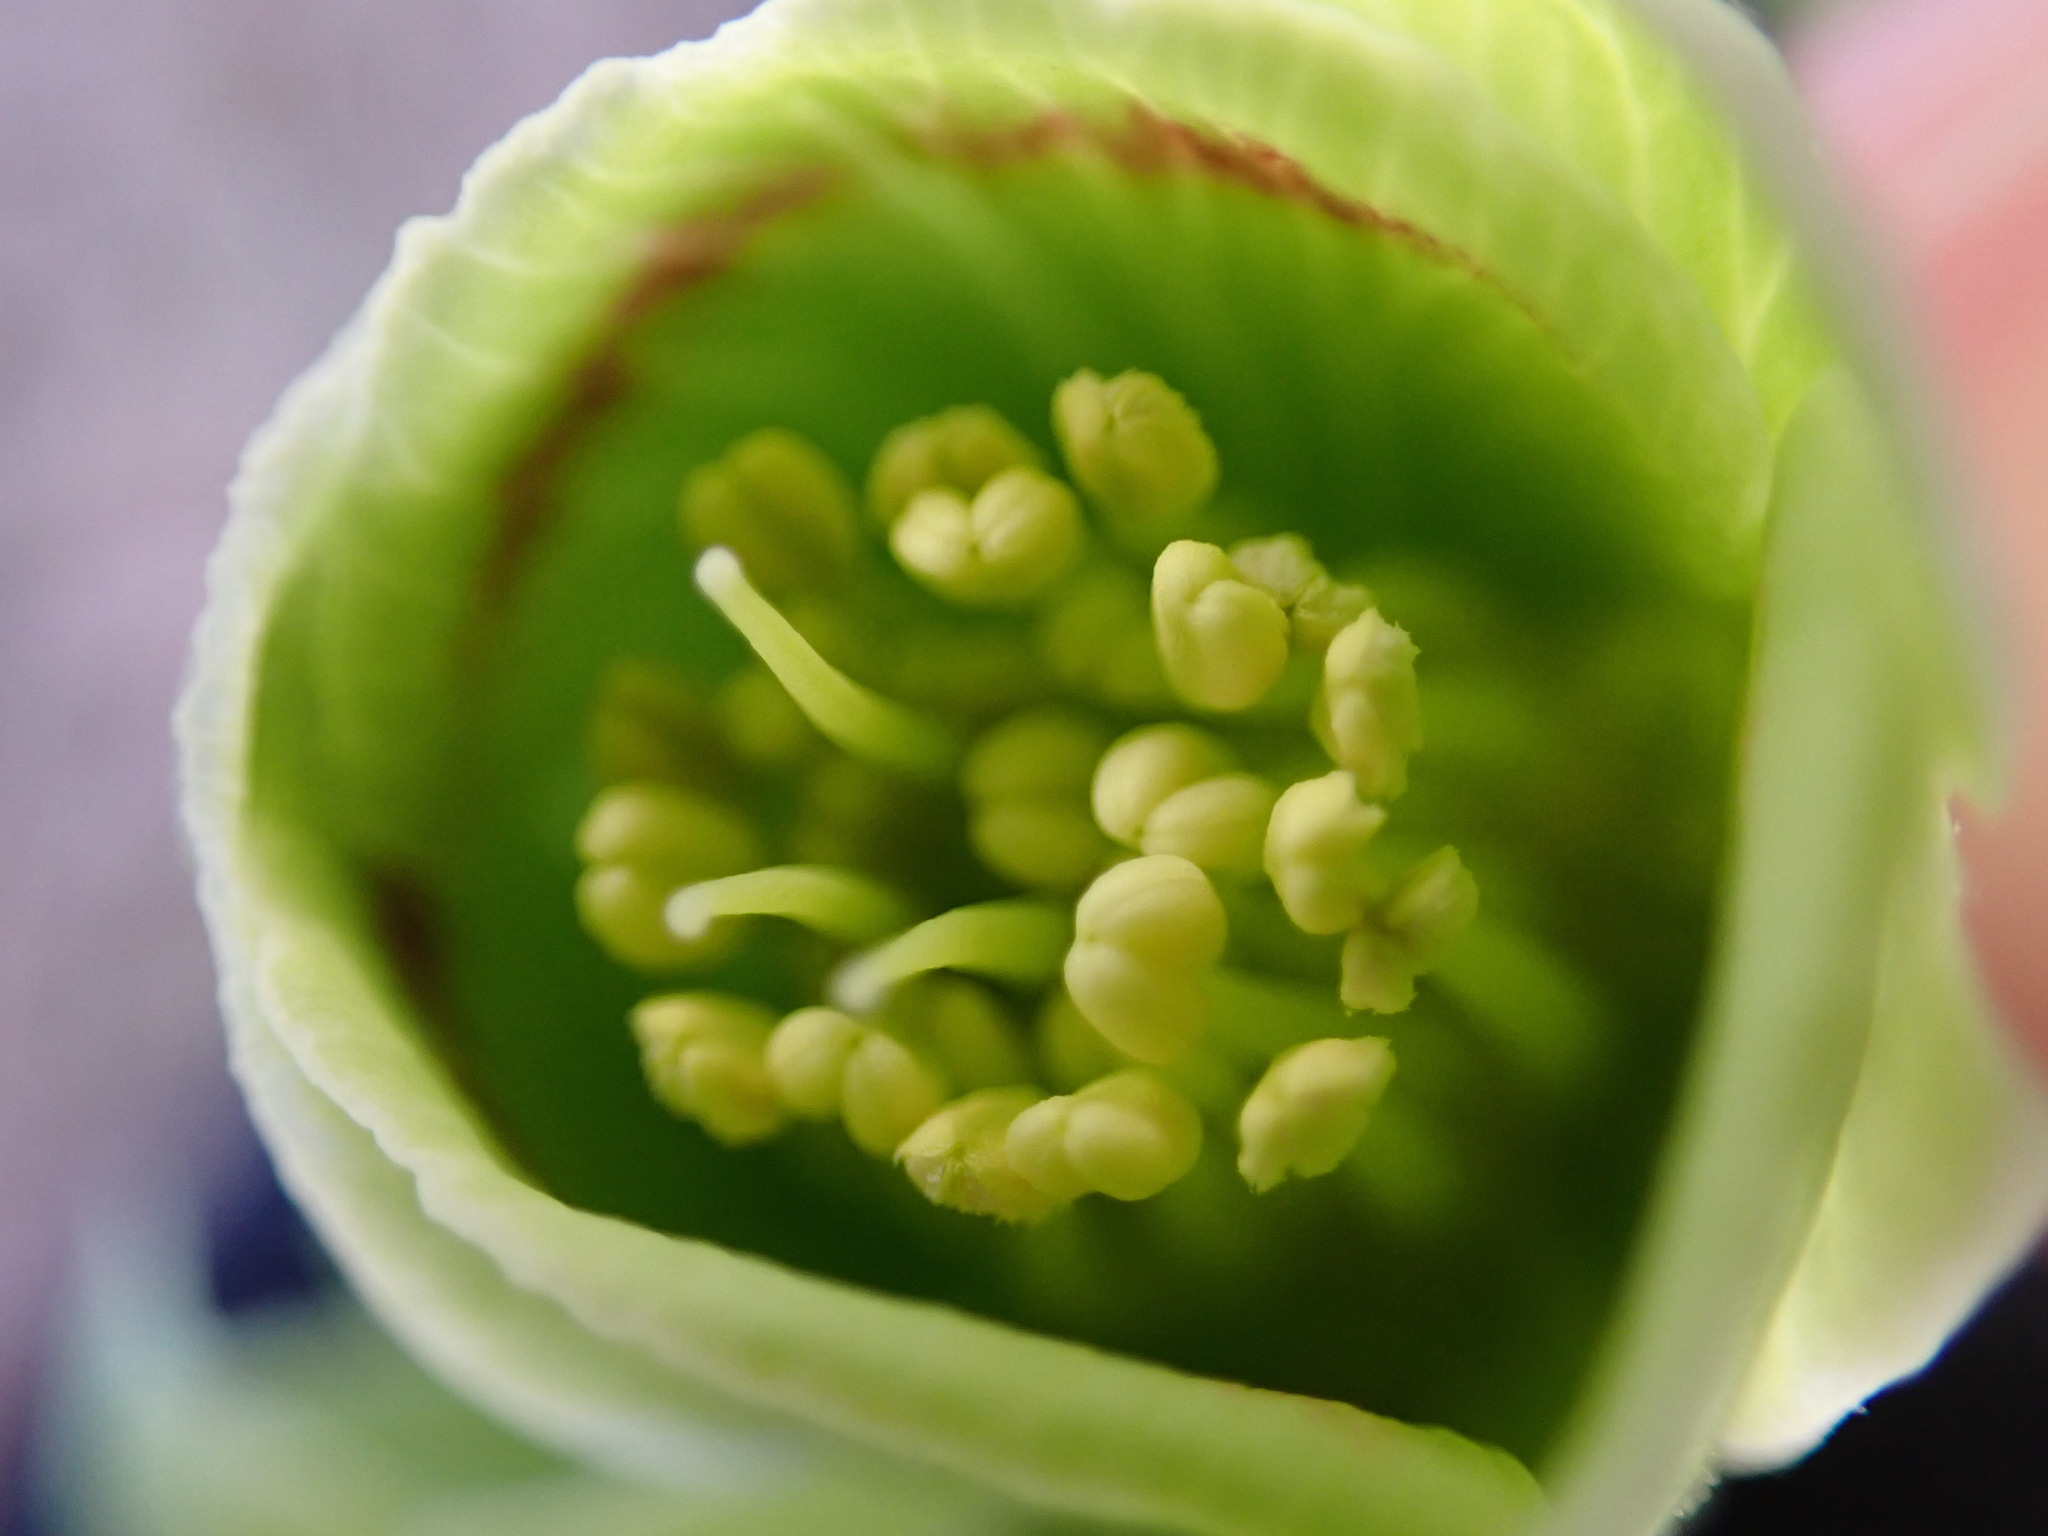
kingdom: Plantae
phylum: Tracheophyta
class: Magnoliopsida
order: Ranunculales
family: Ranunculaceae
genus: Helleborus
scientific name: Helleborus foetidus
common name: Stinking hellebore
